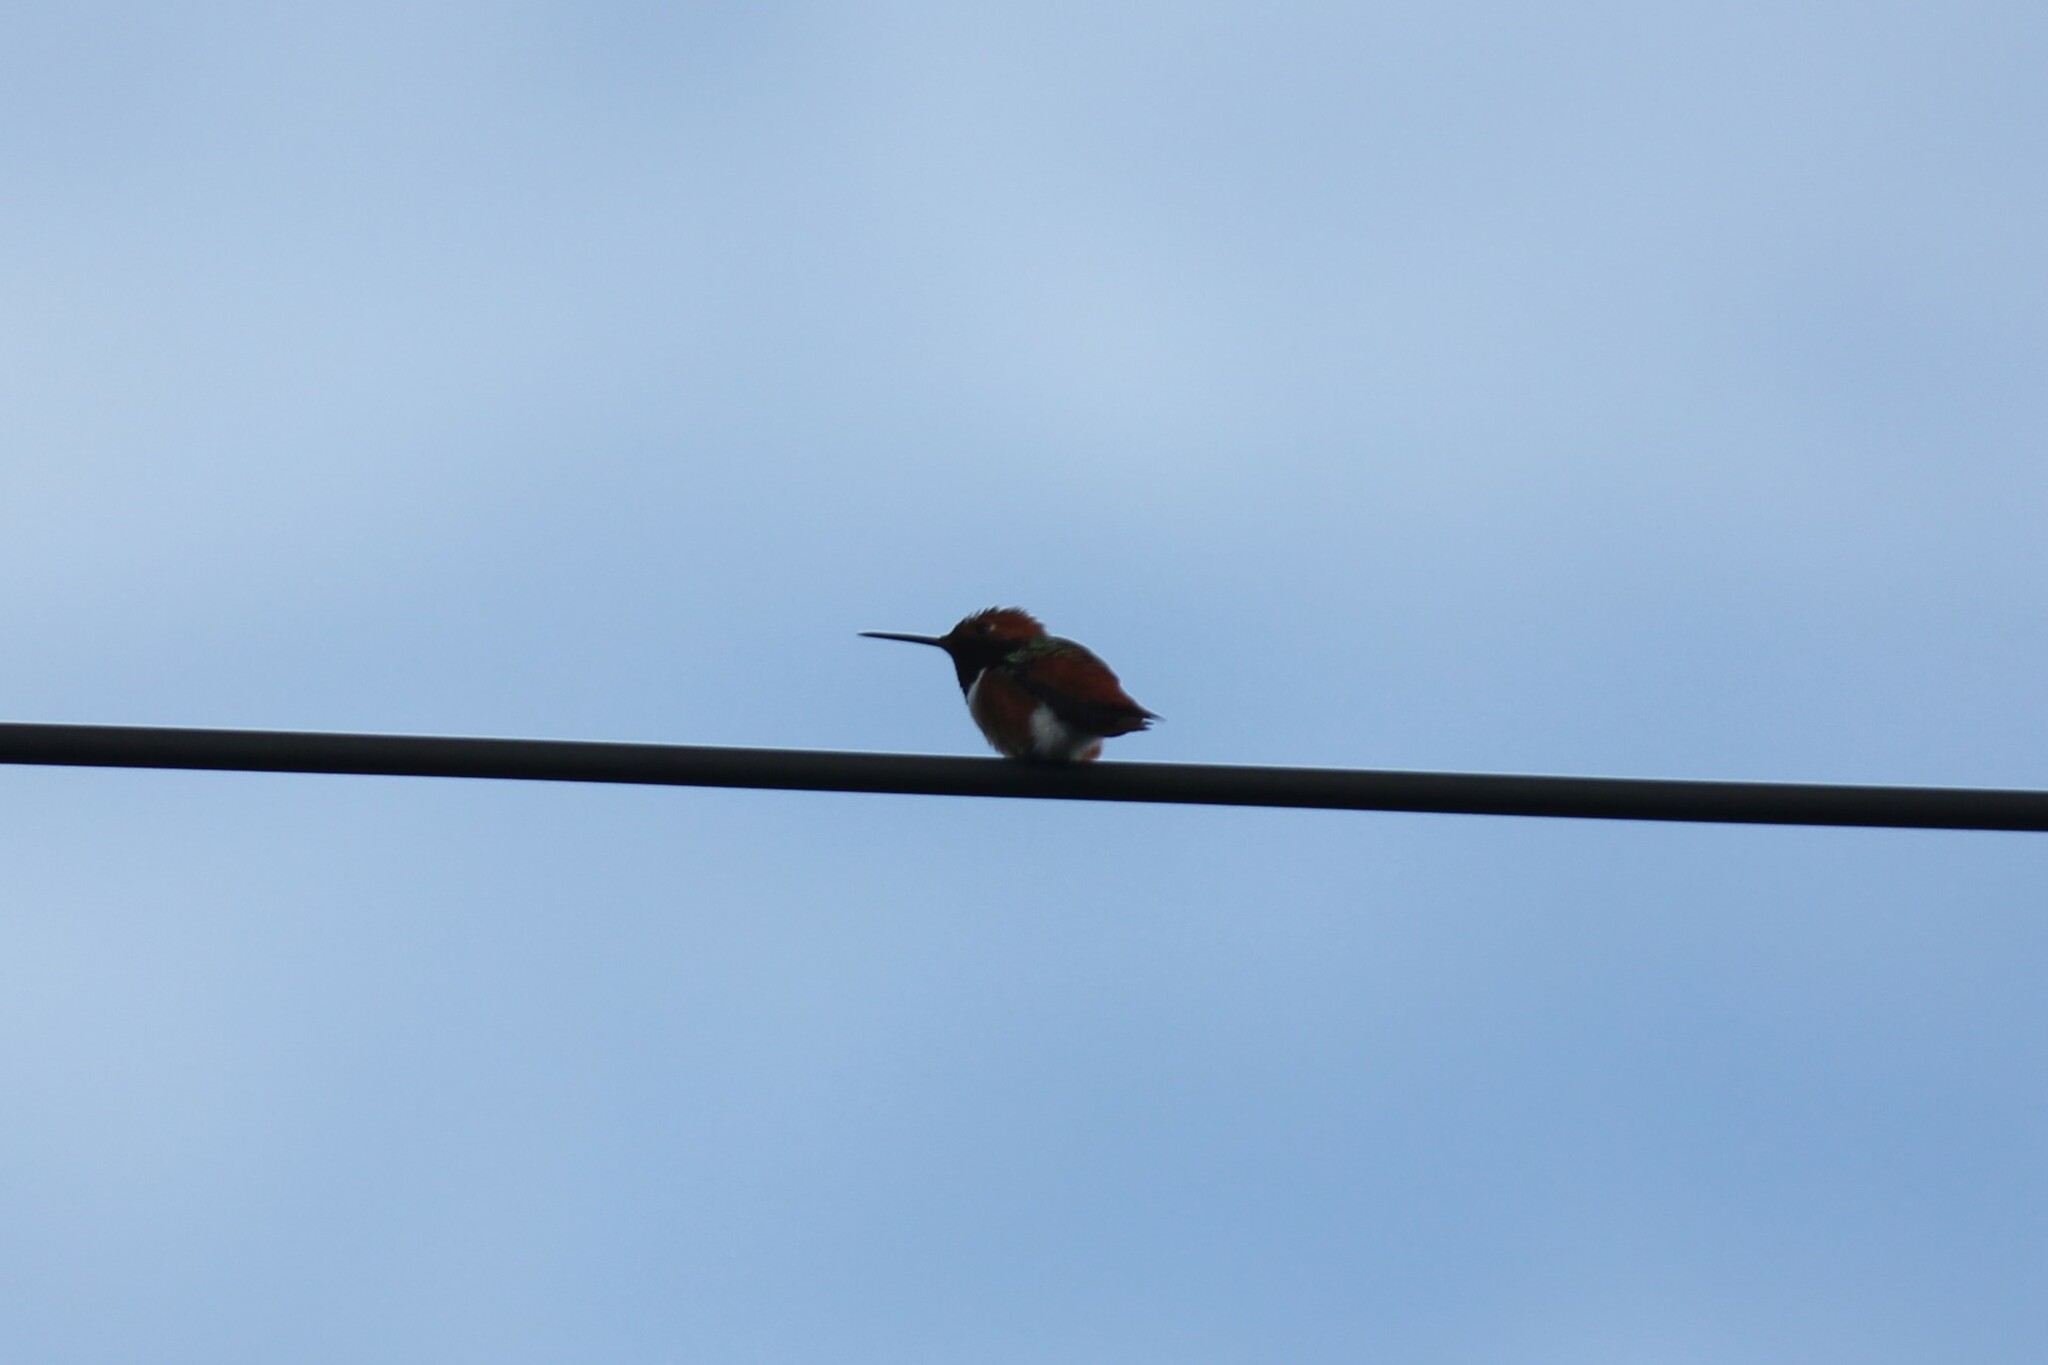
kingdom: Animalia
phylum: Chordata
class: Aves
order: Apodiformes
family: Trochilidae
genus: Selasphorus
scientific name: Selasphorus sasin
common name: Allen's hummingbird
